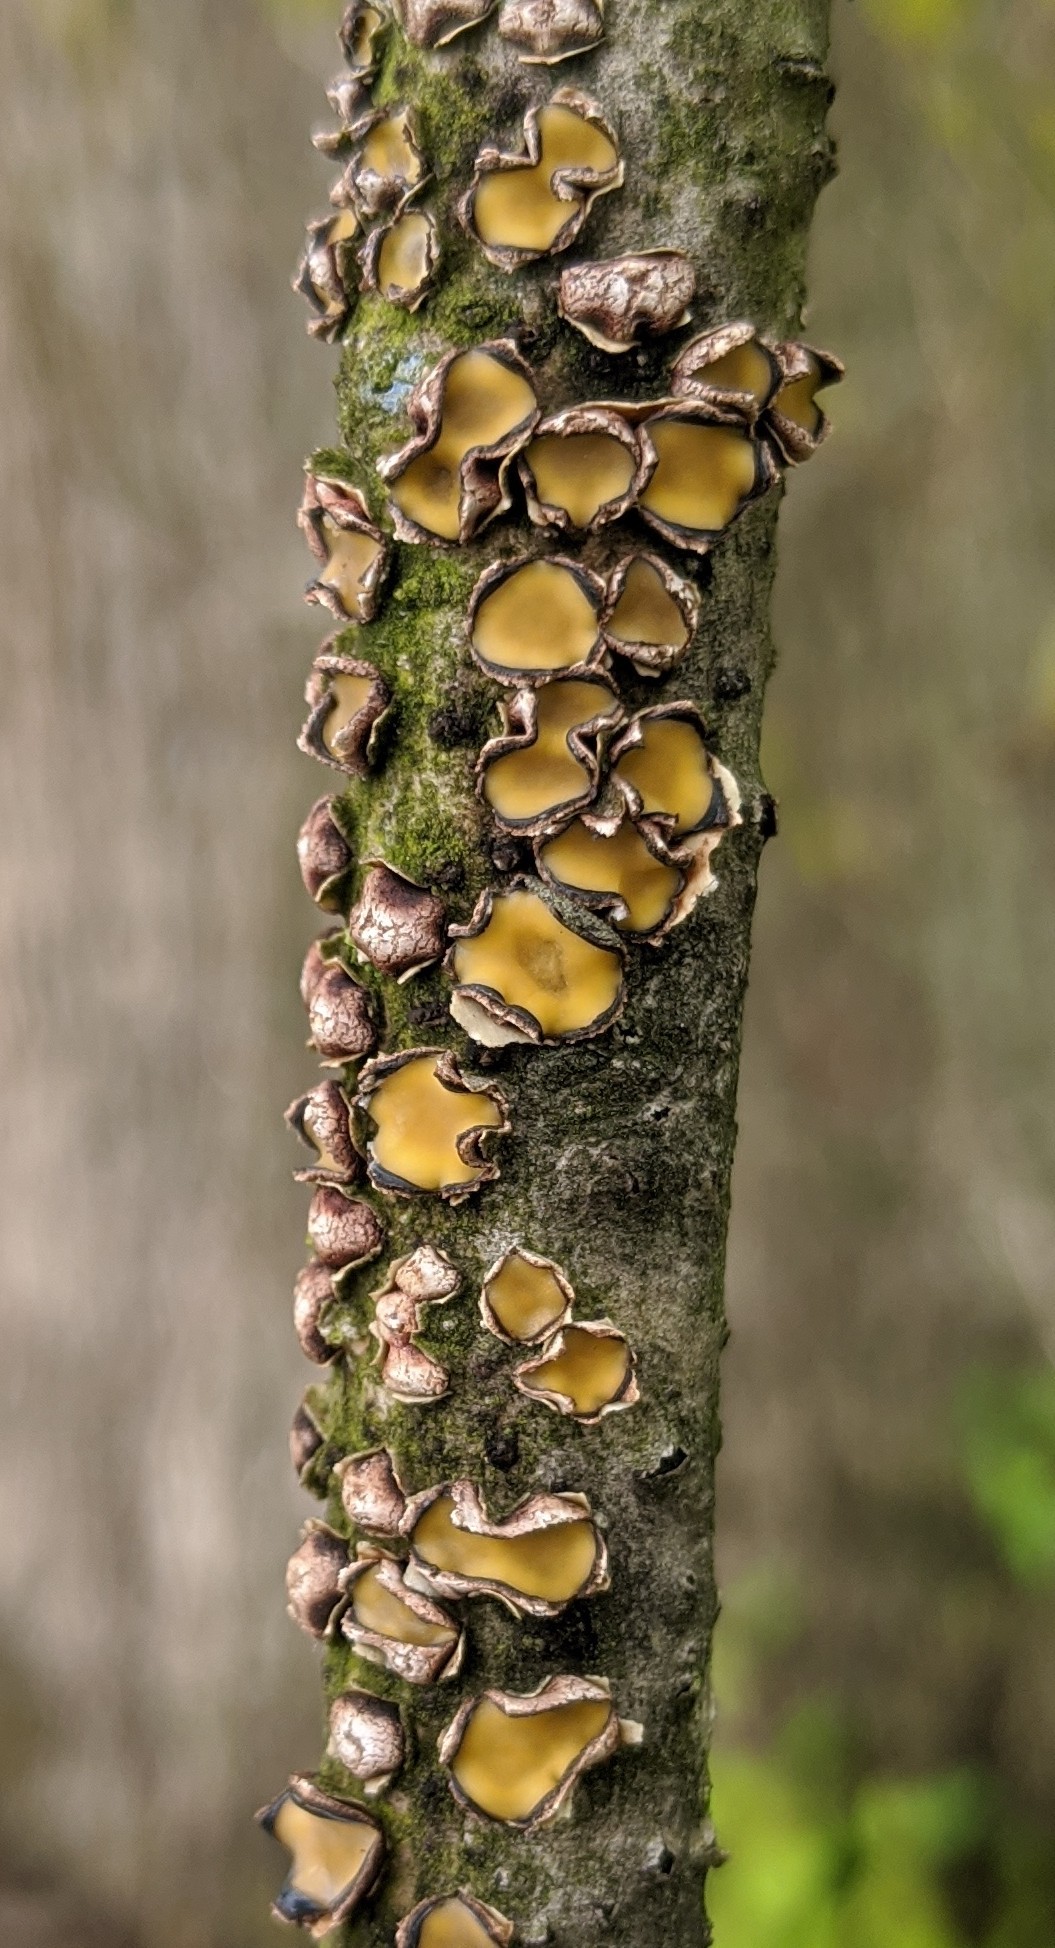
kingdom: Fungi
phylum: Ascomycota
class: Leotiomycetes
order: Rhytismatales
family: Rhytismataceae
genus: Coccomyces
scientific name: Coccomyces triangularis
